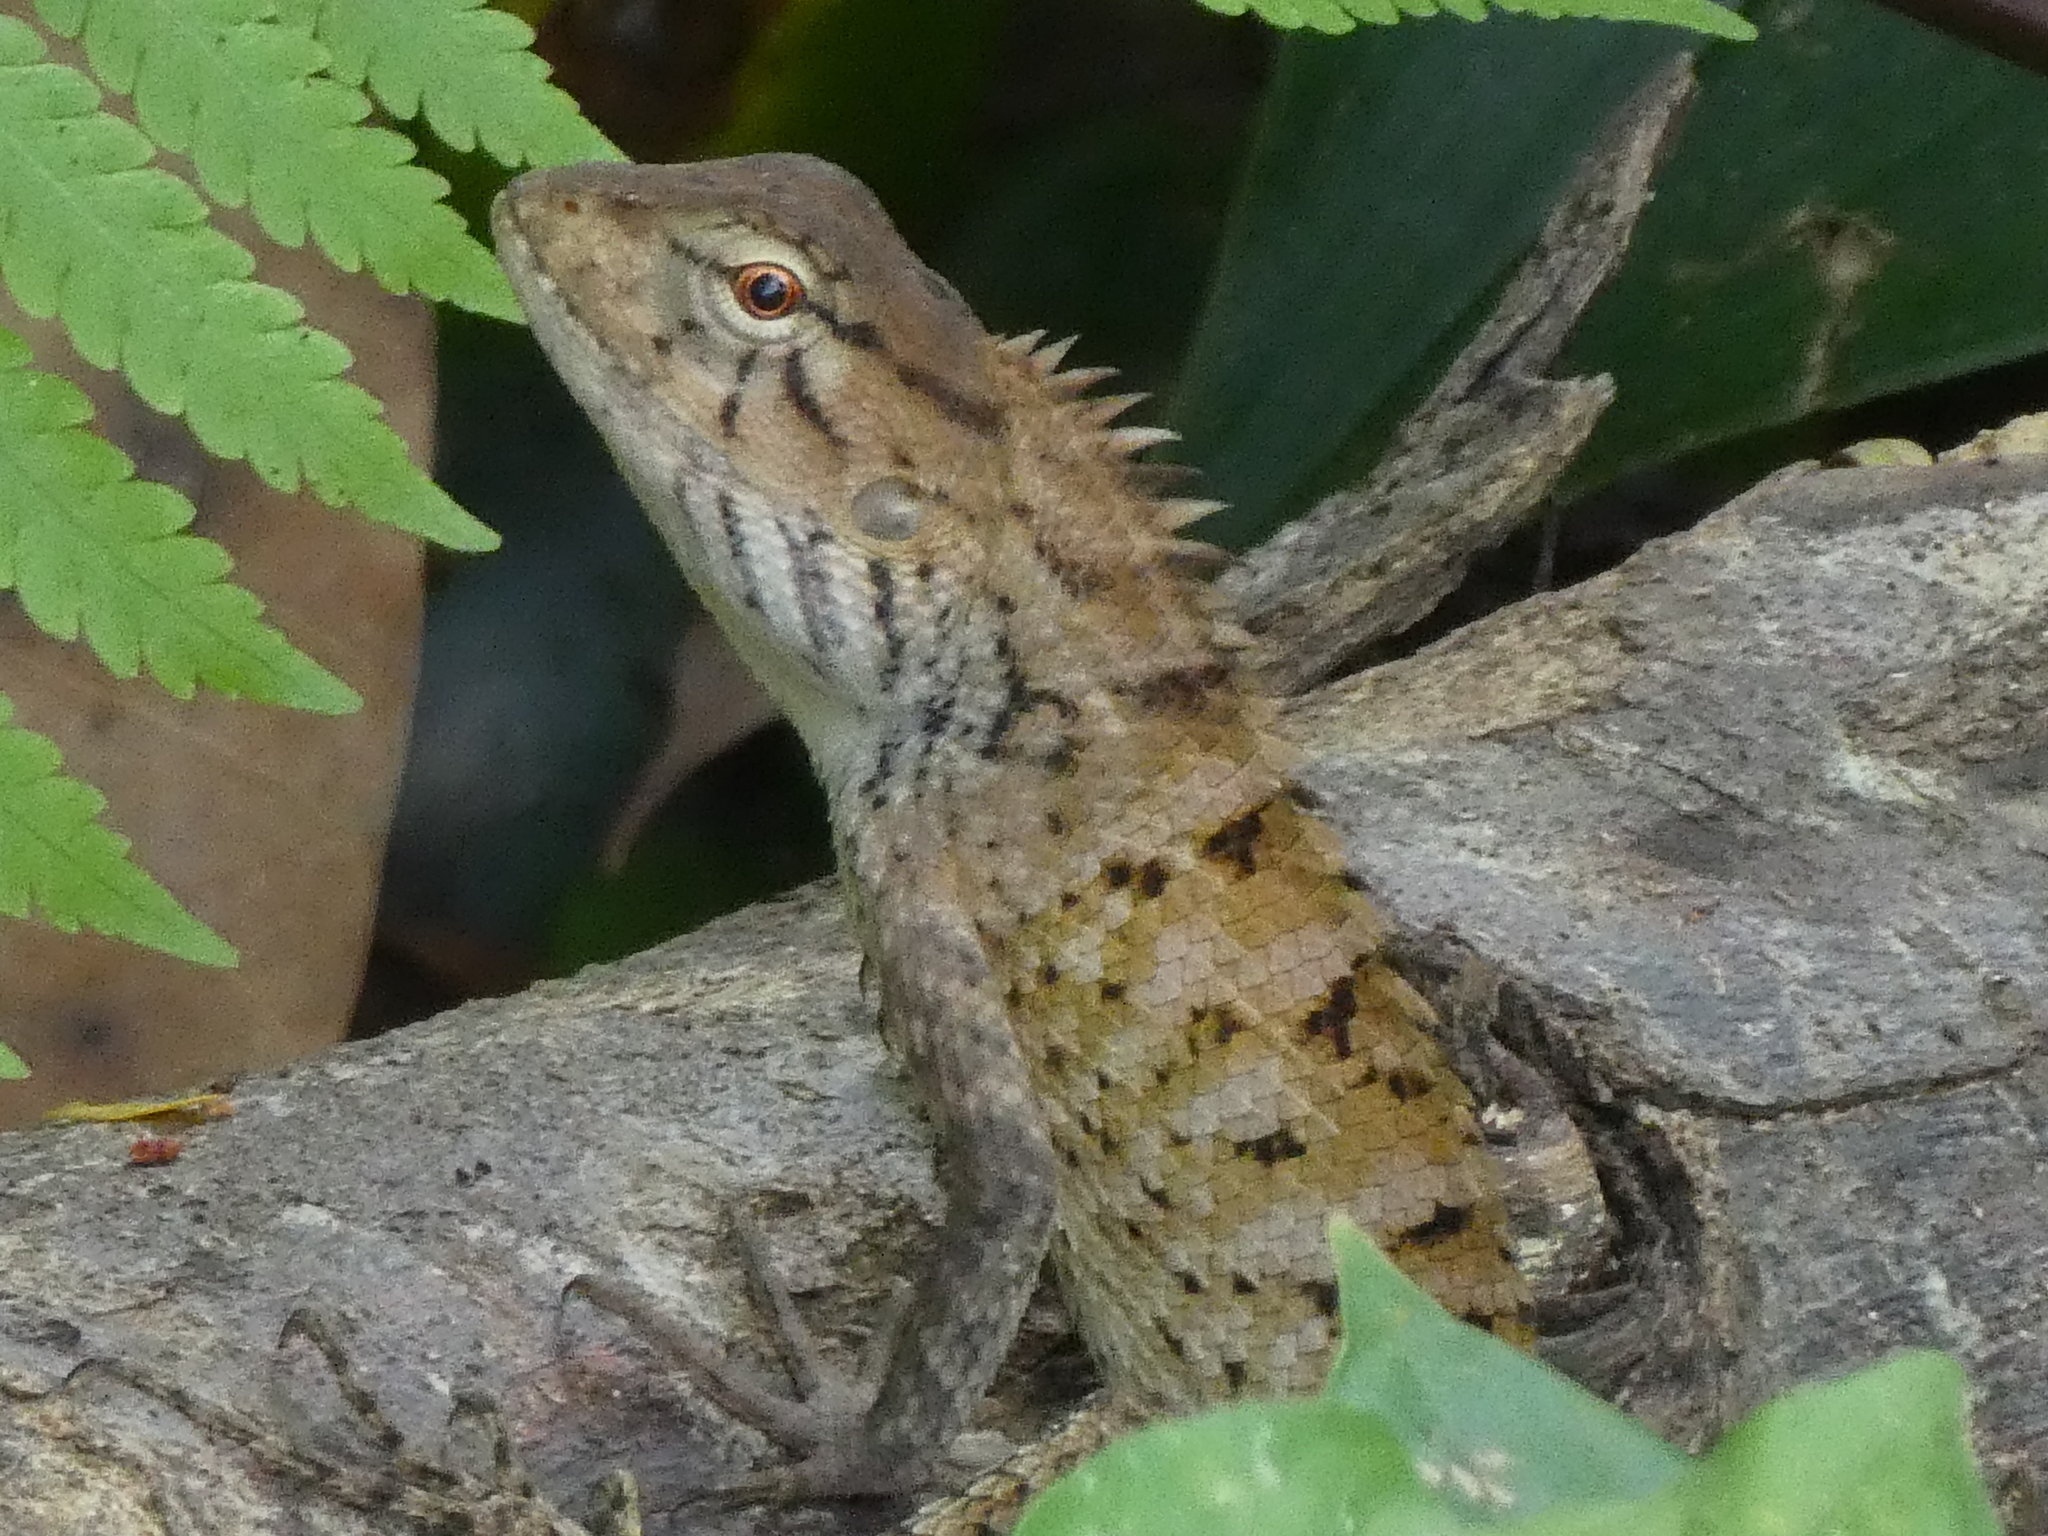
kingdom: Animalia
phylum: Chordata
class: Squamata
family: Agamidae
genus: Calotes
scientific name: Calotes versicolor
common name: Oriental garden lizard
